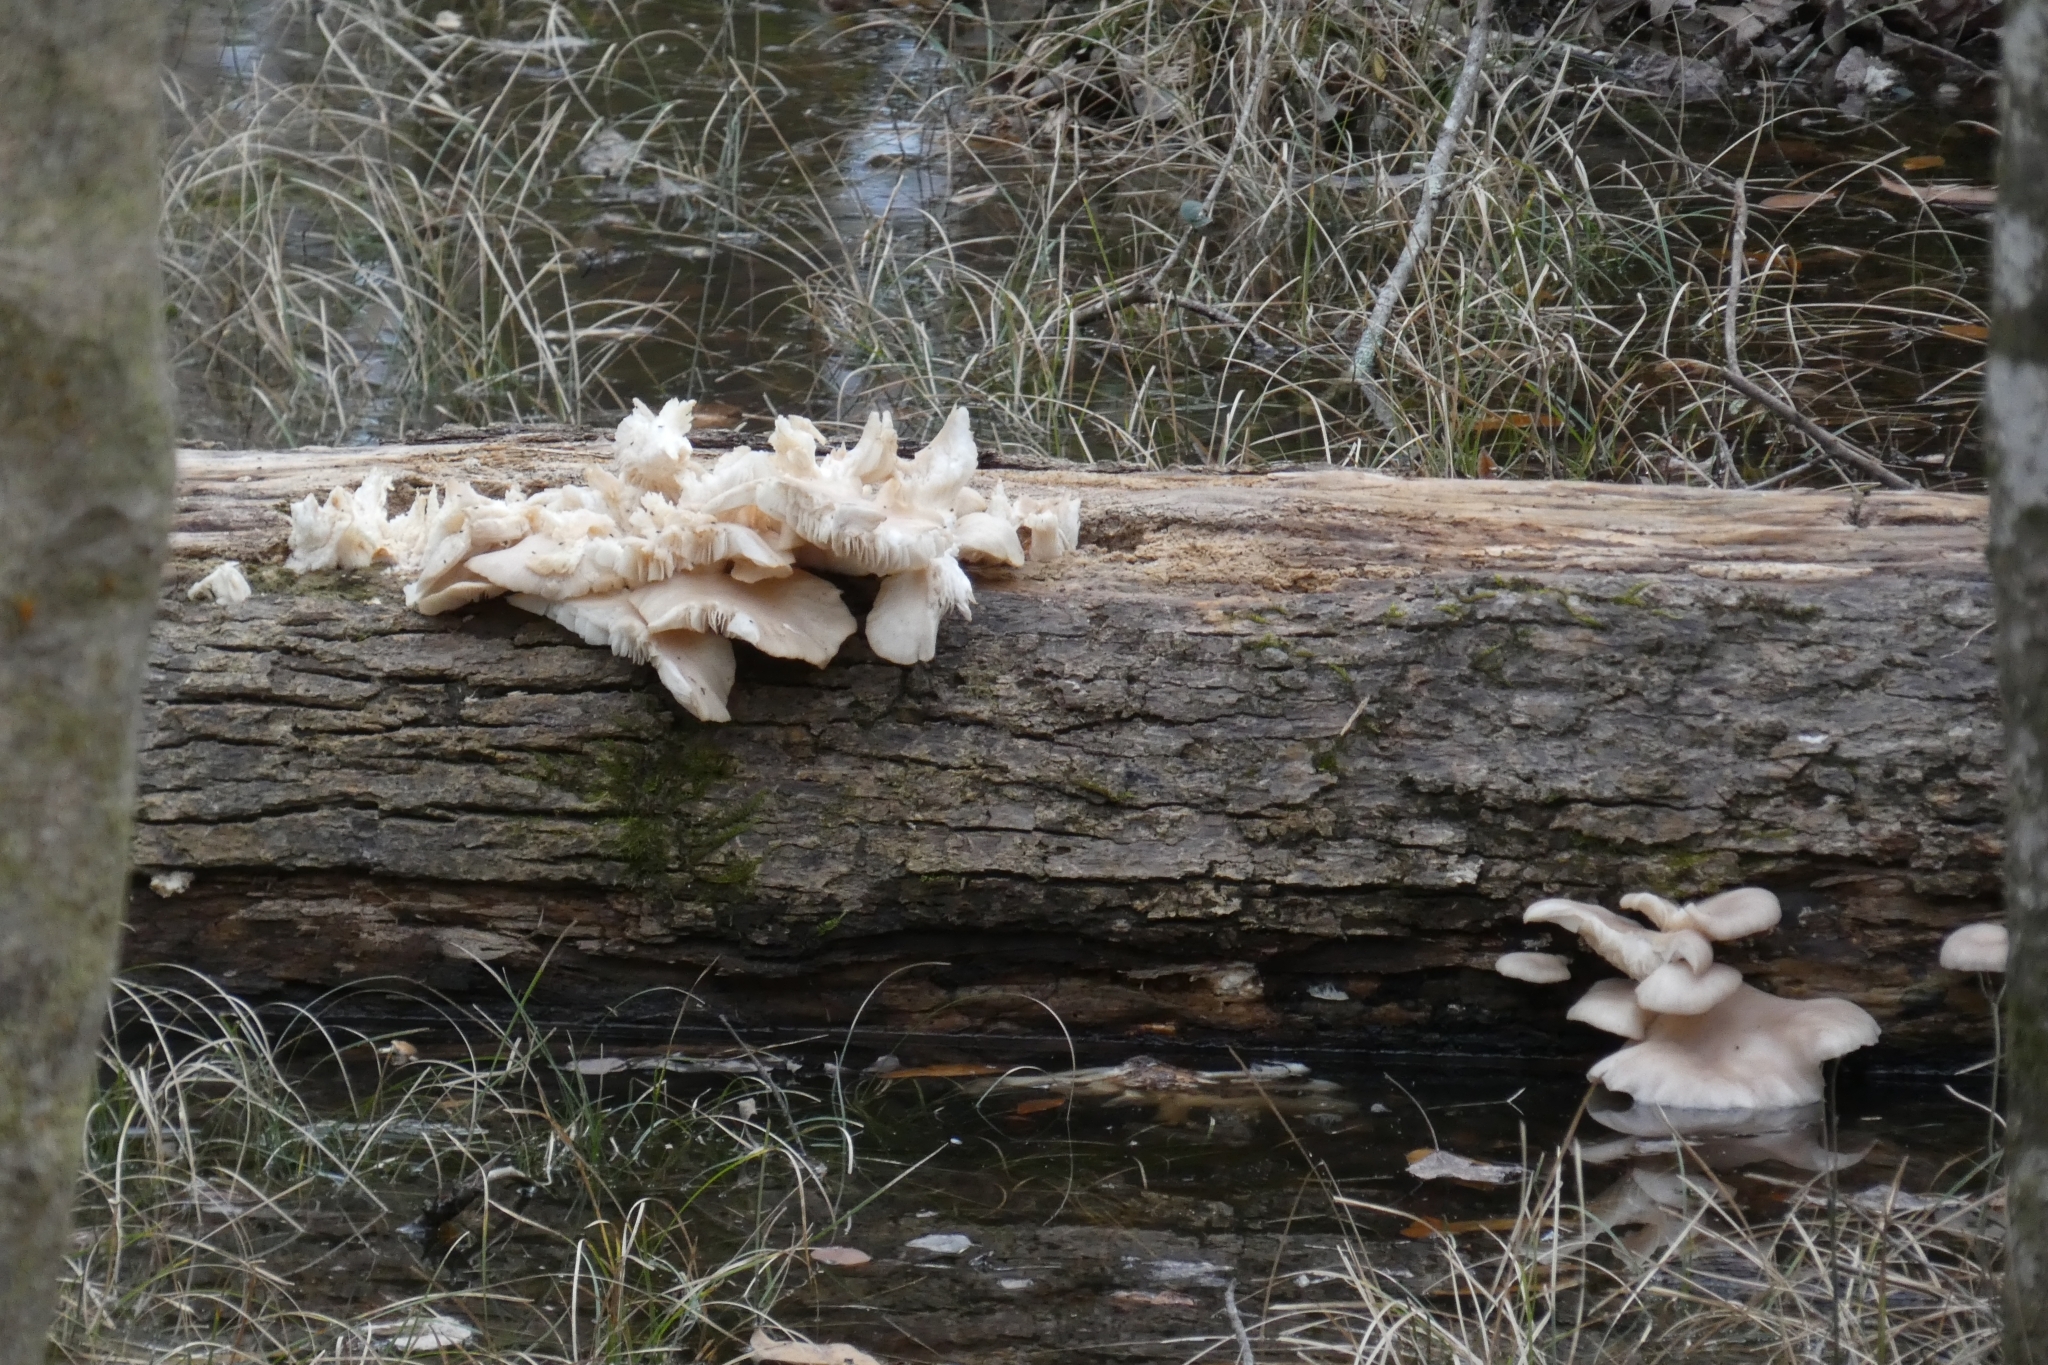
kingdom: Fungi
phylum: Basidiomycota
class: Agaricomycetes
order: Agaricales
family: Pleurotaceae
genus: Pleurotus
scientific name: Pleurotus pulmonarius
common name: Pale oyster
